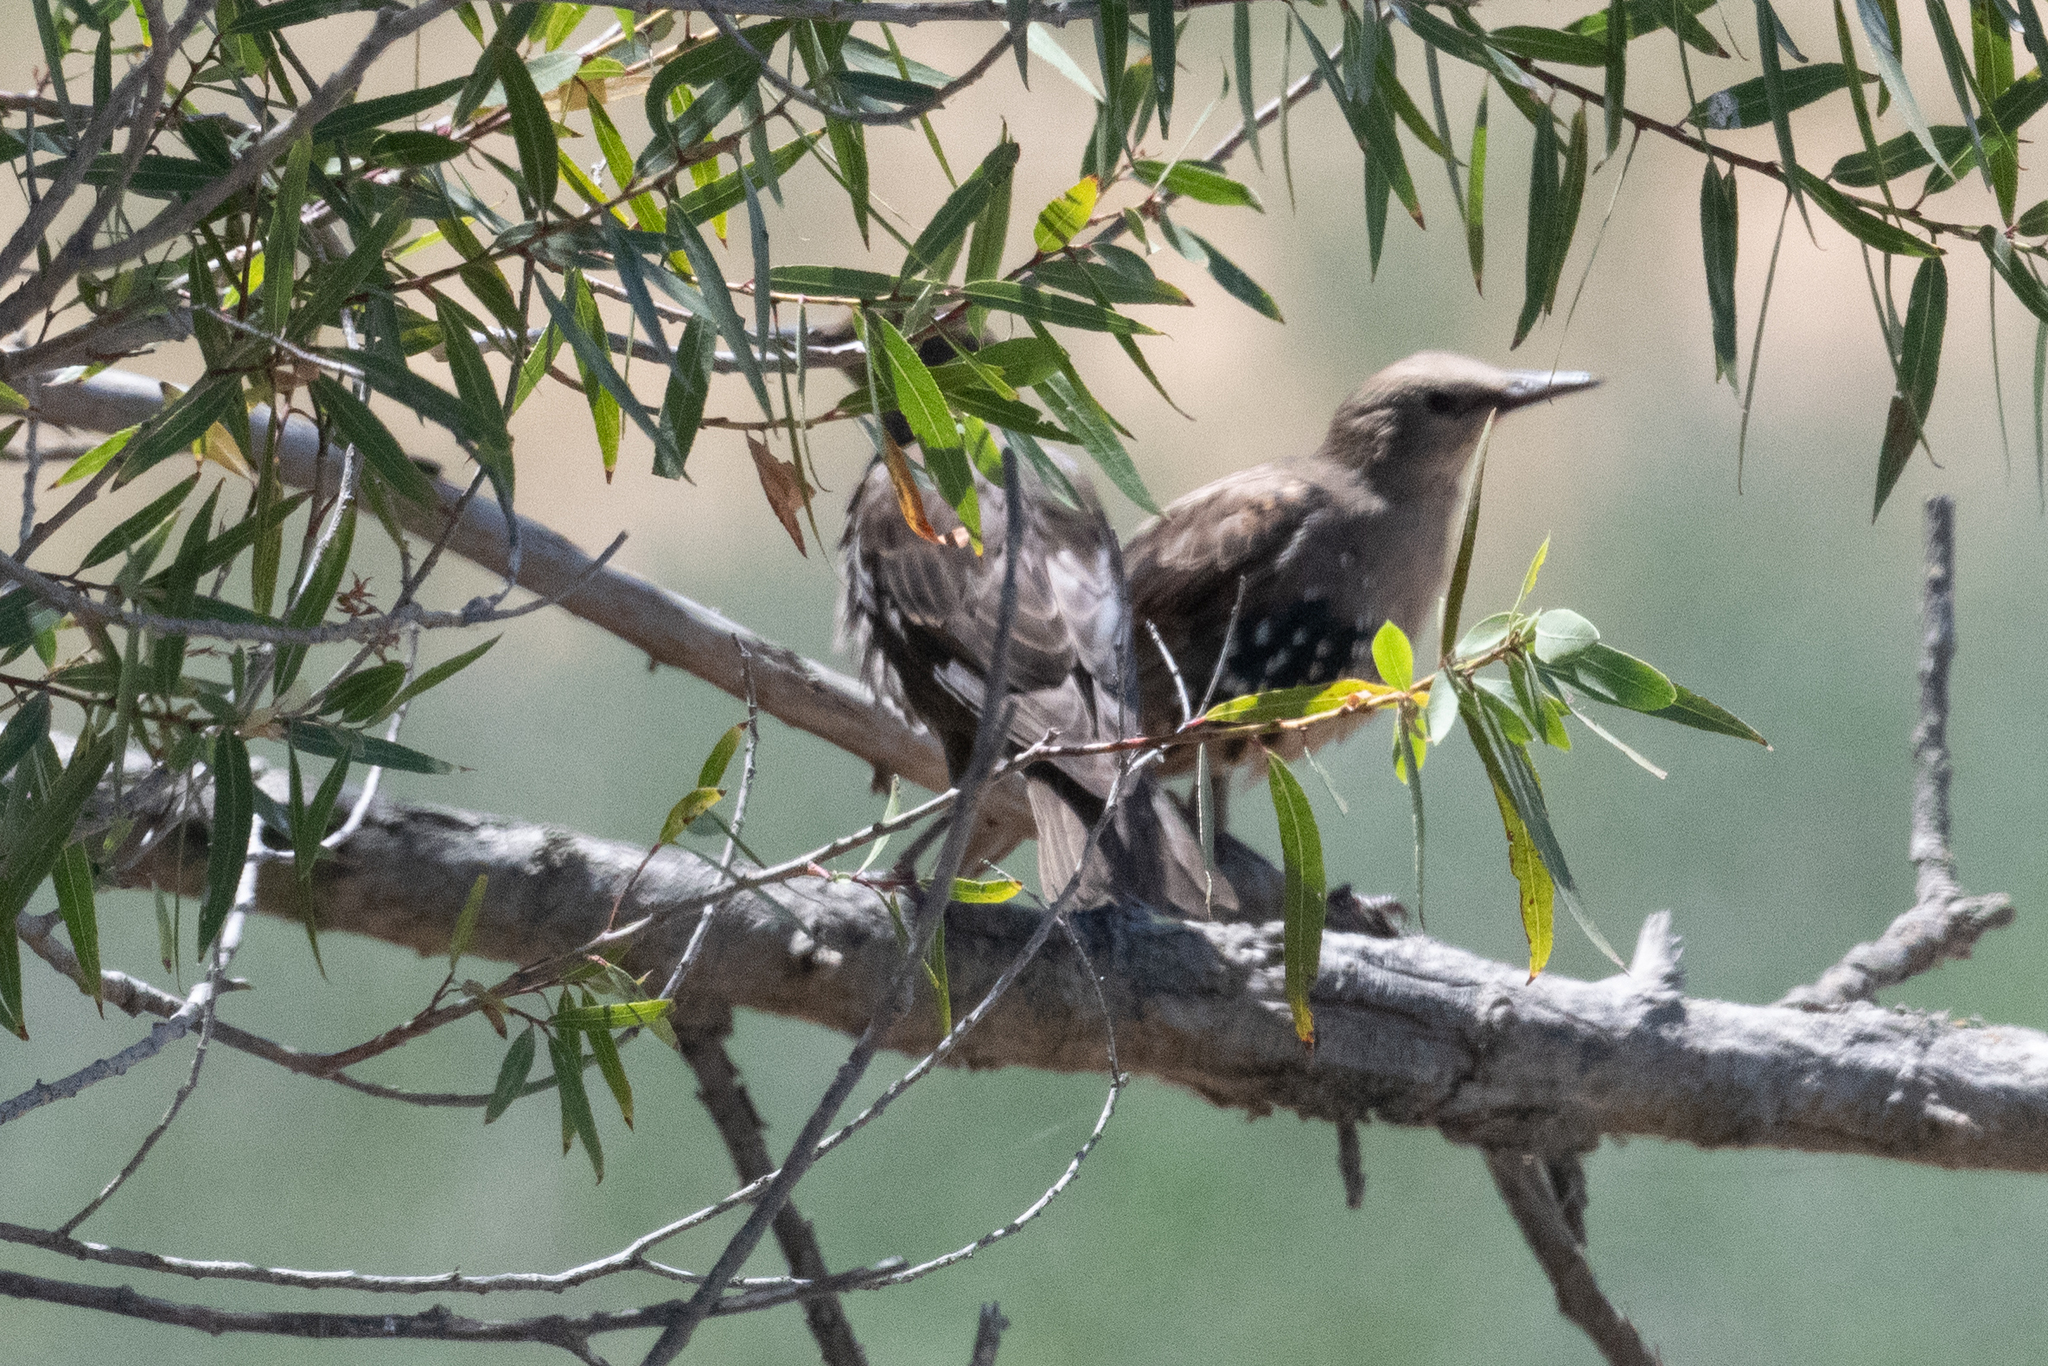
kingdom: Animalia
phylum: Chordata
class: Aves
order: Passeriformes
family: Sturnidae
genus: Sturnus
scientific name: Sturnus vulgaris
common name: Common starling
